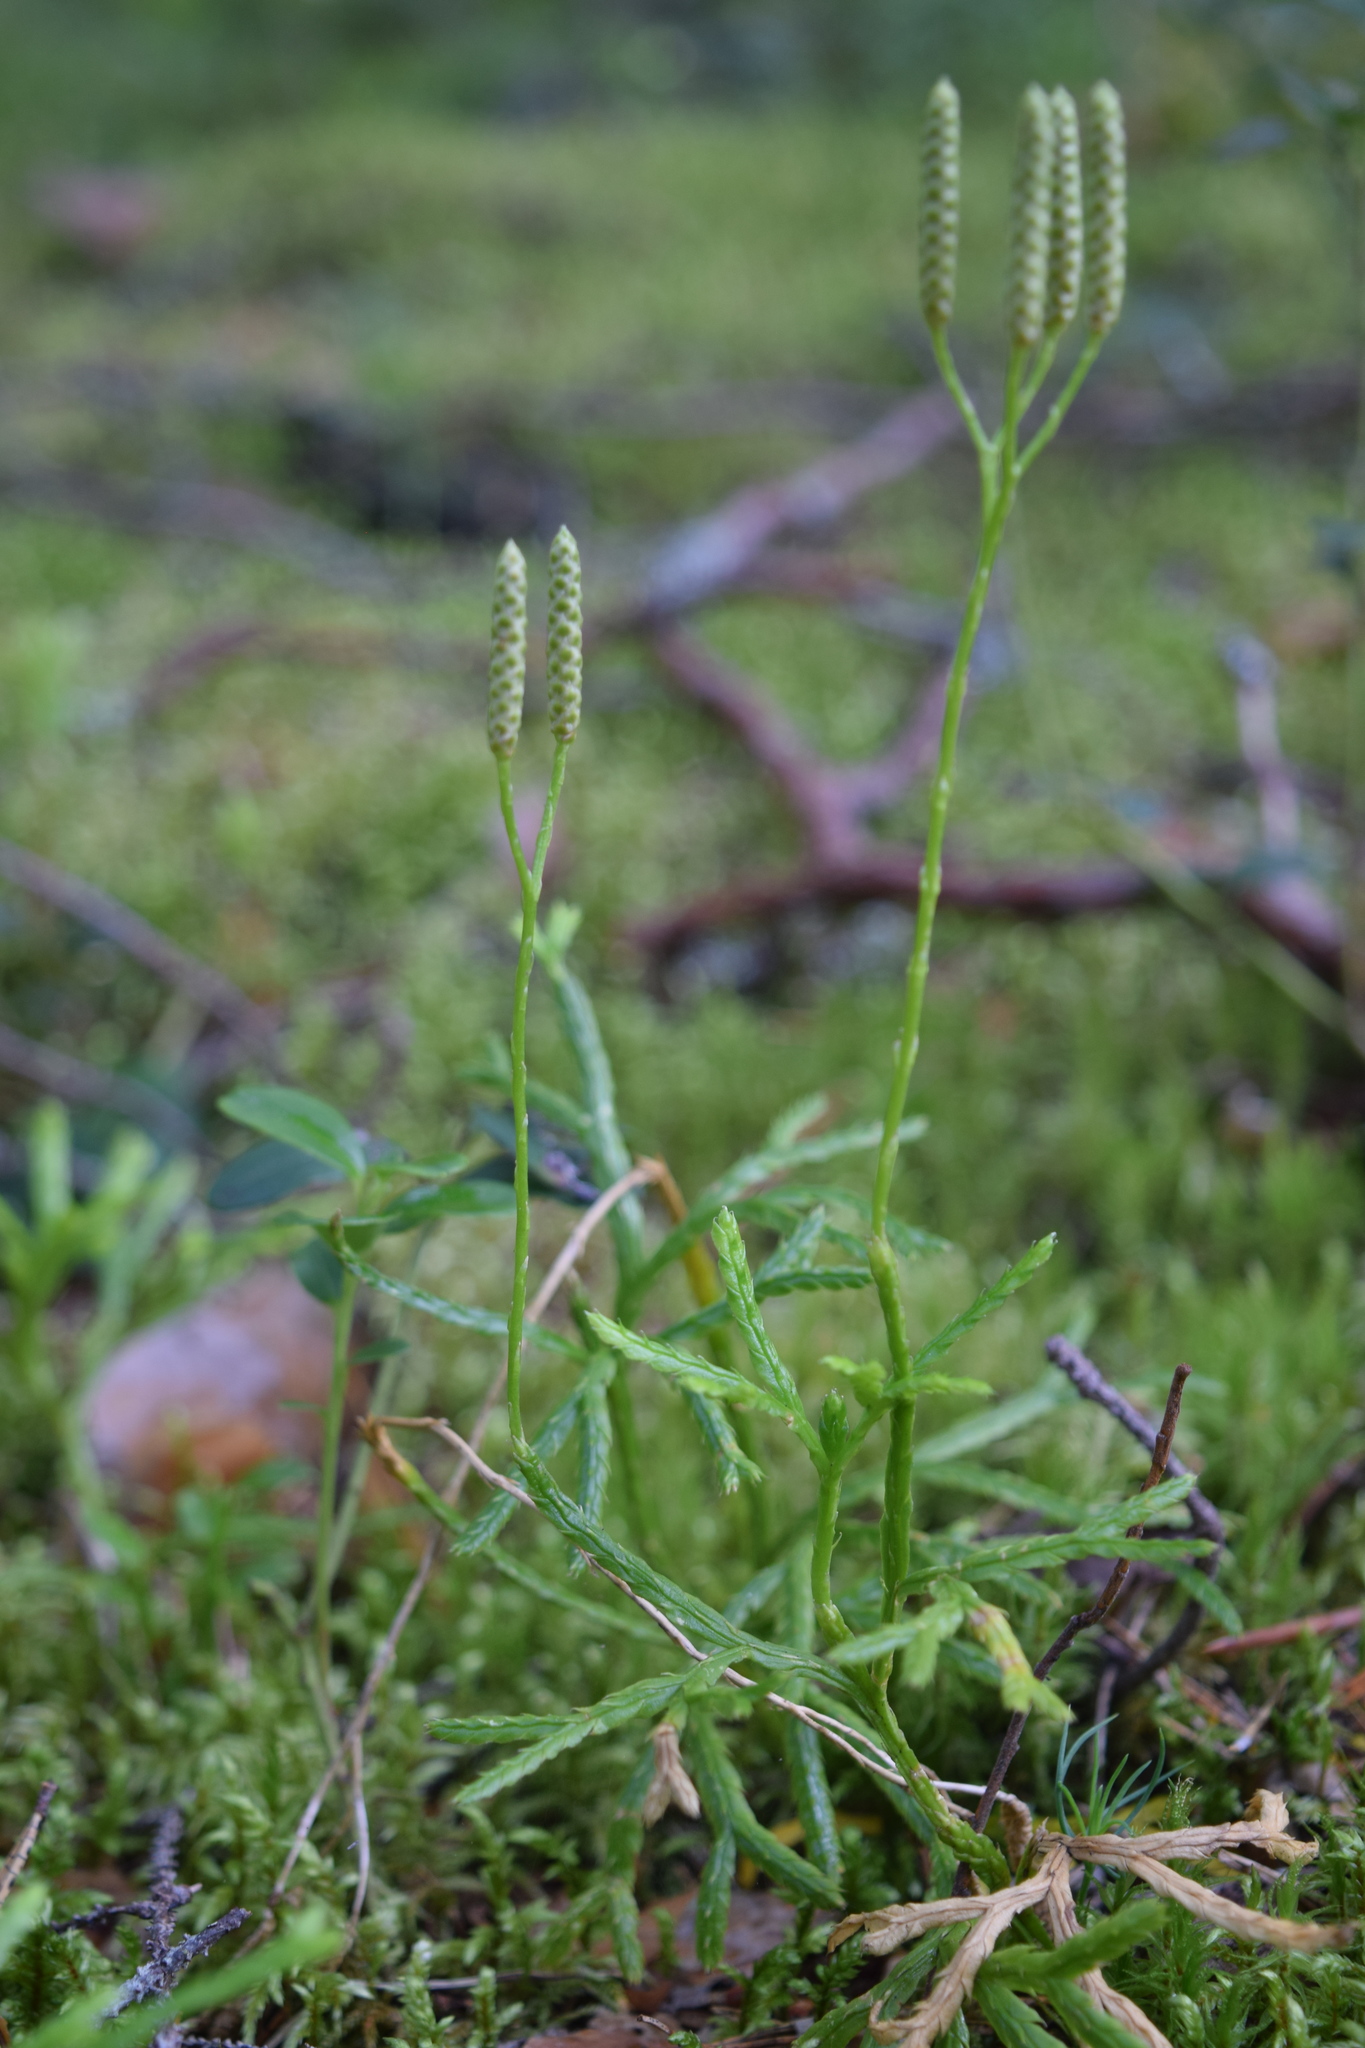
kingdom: Plantae
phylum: Tracheophyta
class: Lycopodiopsida
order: Lycopodiales
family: Lycopodiaceae
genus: Diphasiastrum
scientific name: Diphasiastrum complanatum
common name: Northern running-pine
